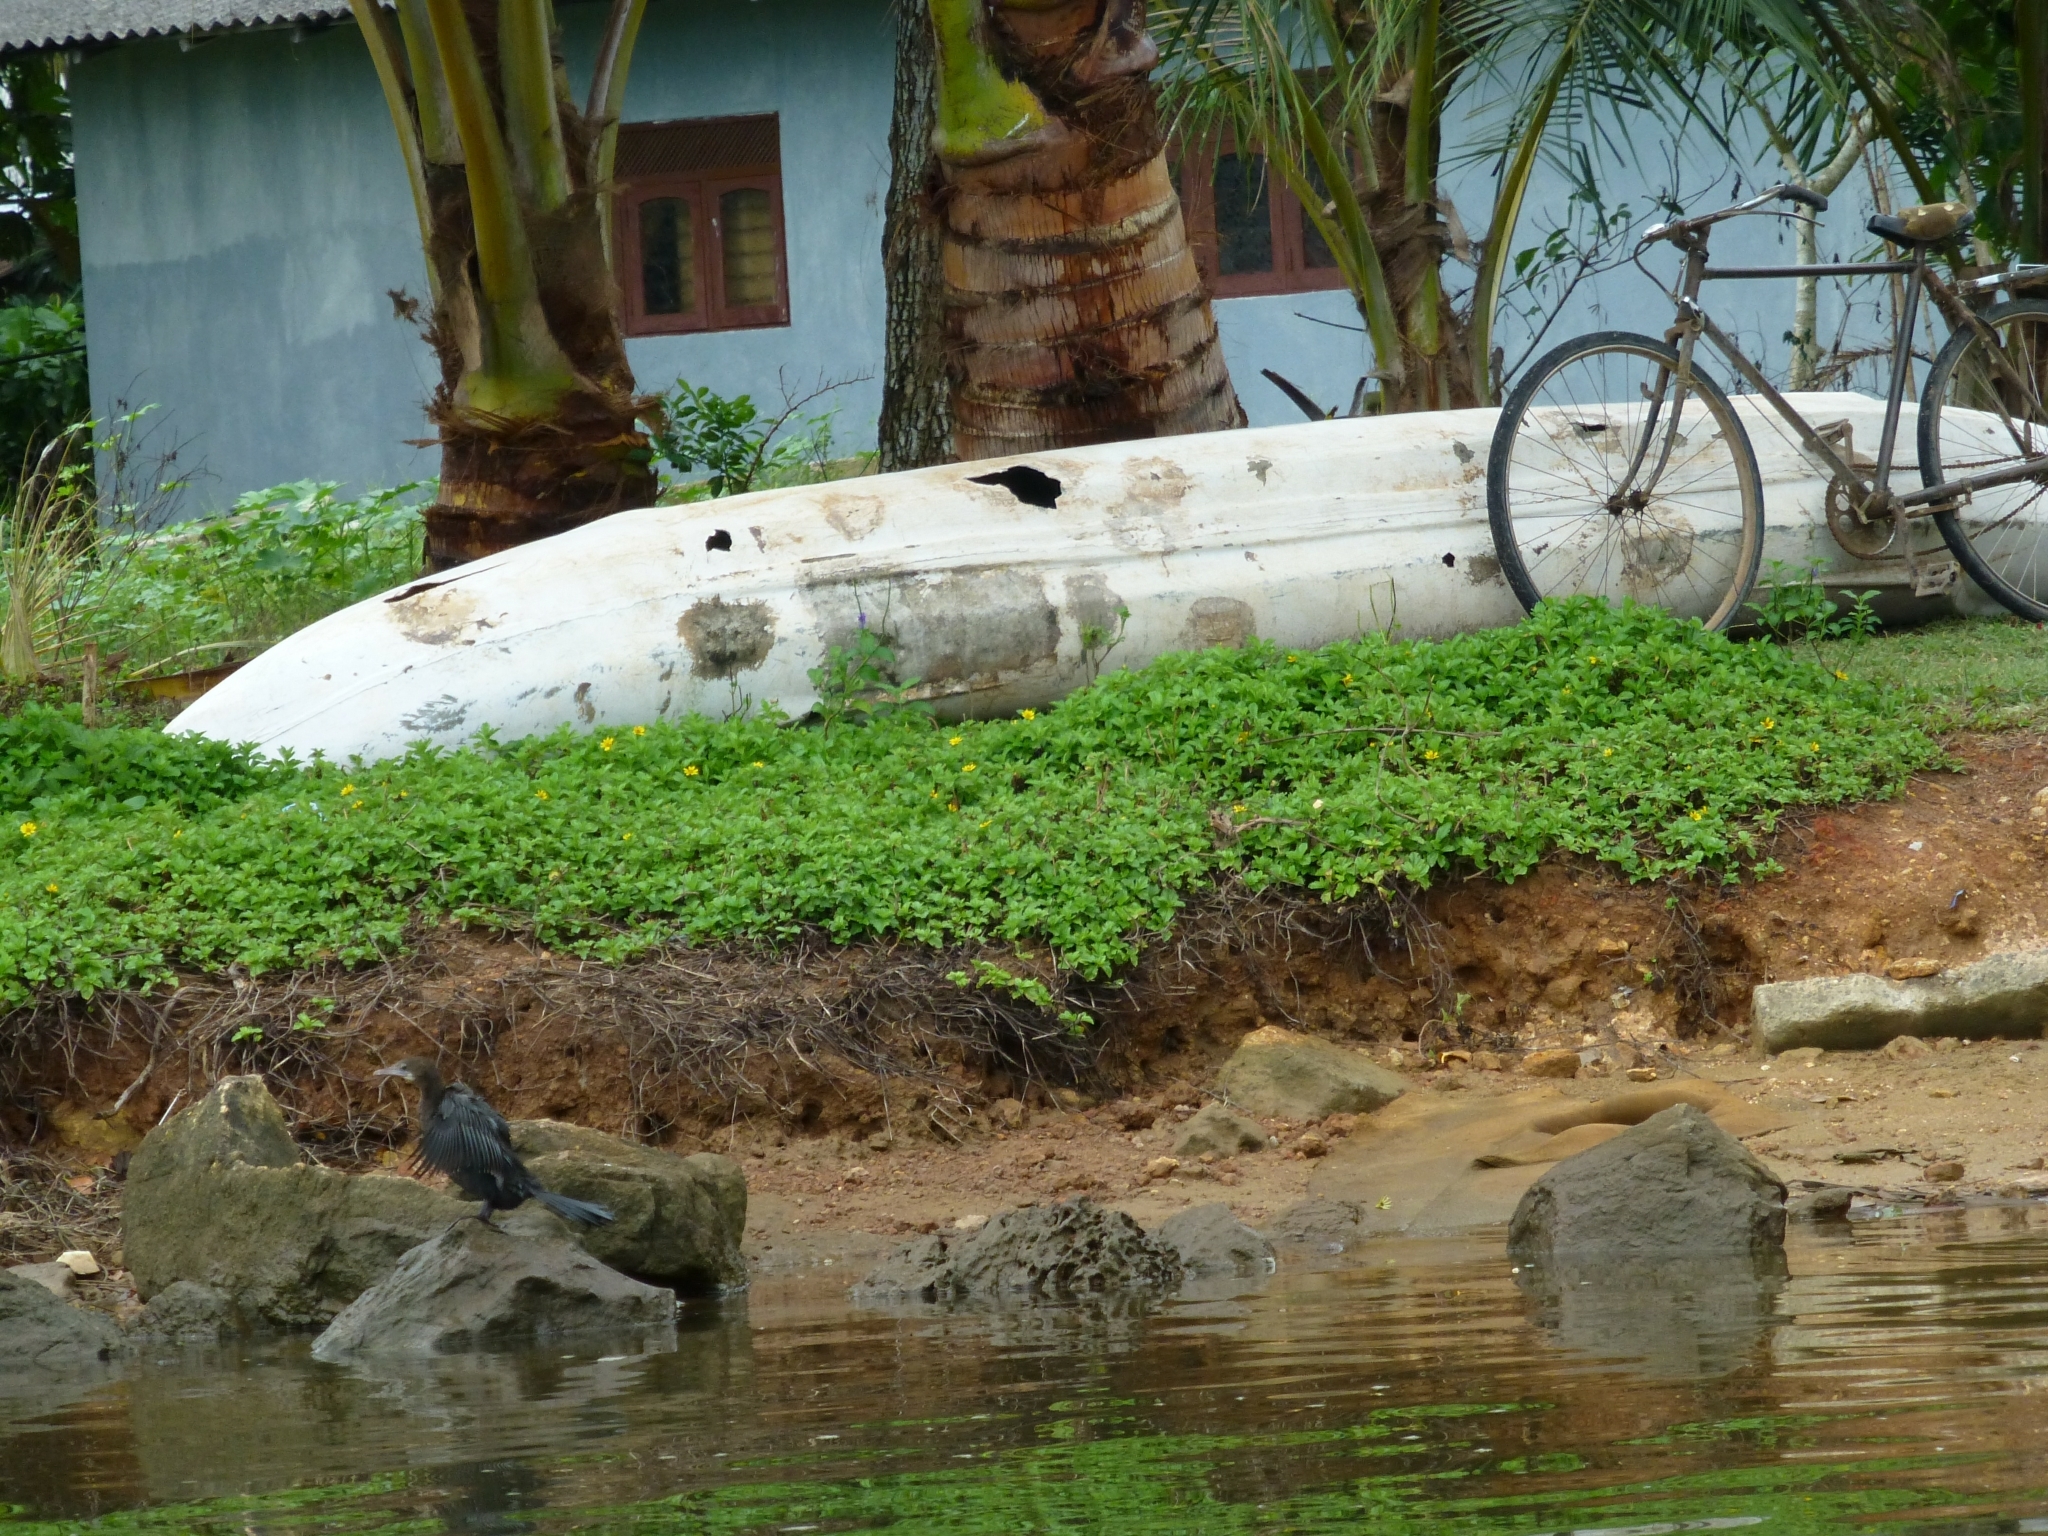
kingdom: Animalia
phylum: Chordata
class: Aves
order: Suliformes
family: Phalacrocoracidae
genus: Microcarbo
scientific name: Microcarbo niger
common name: Little cormorant
